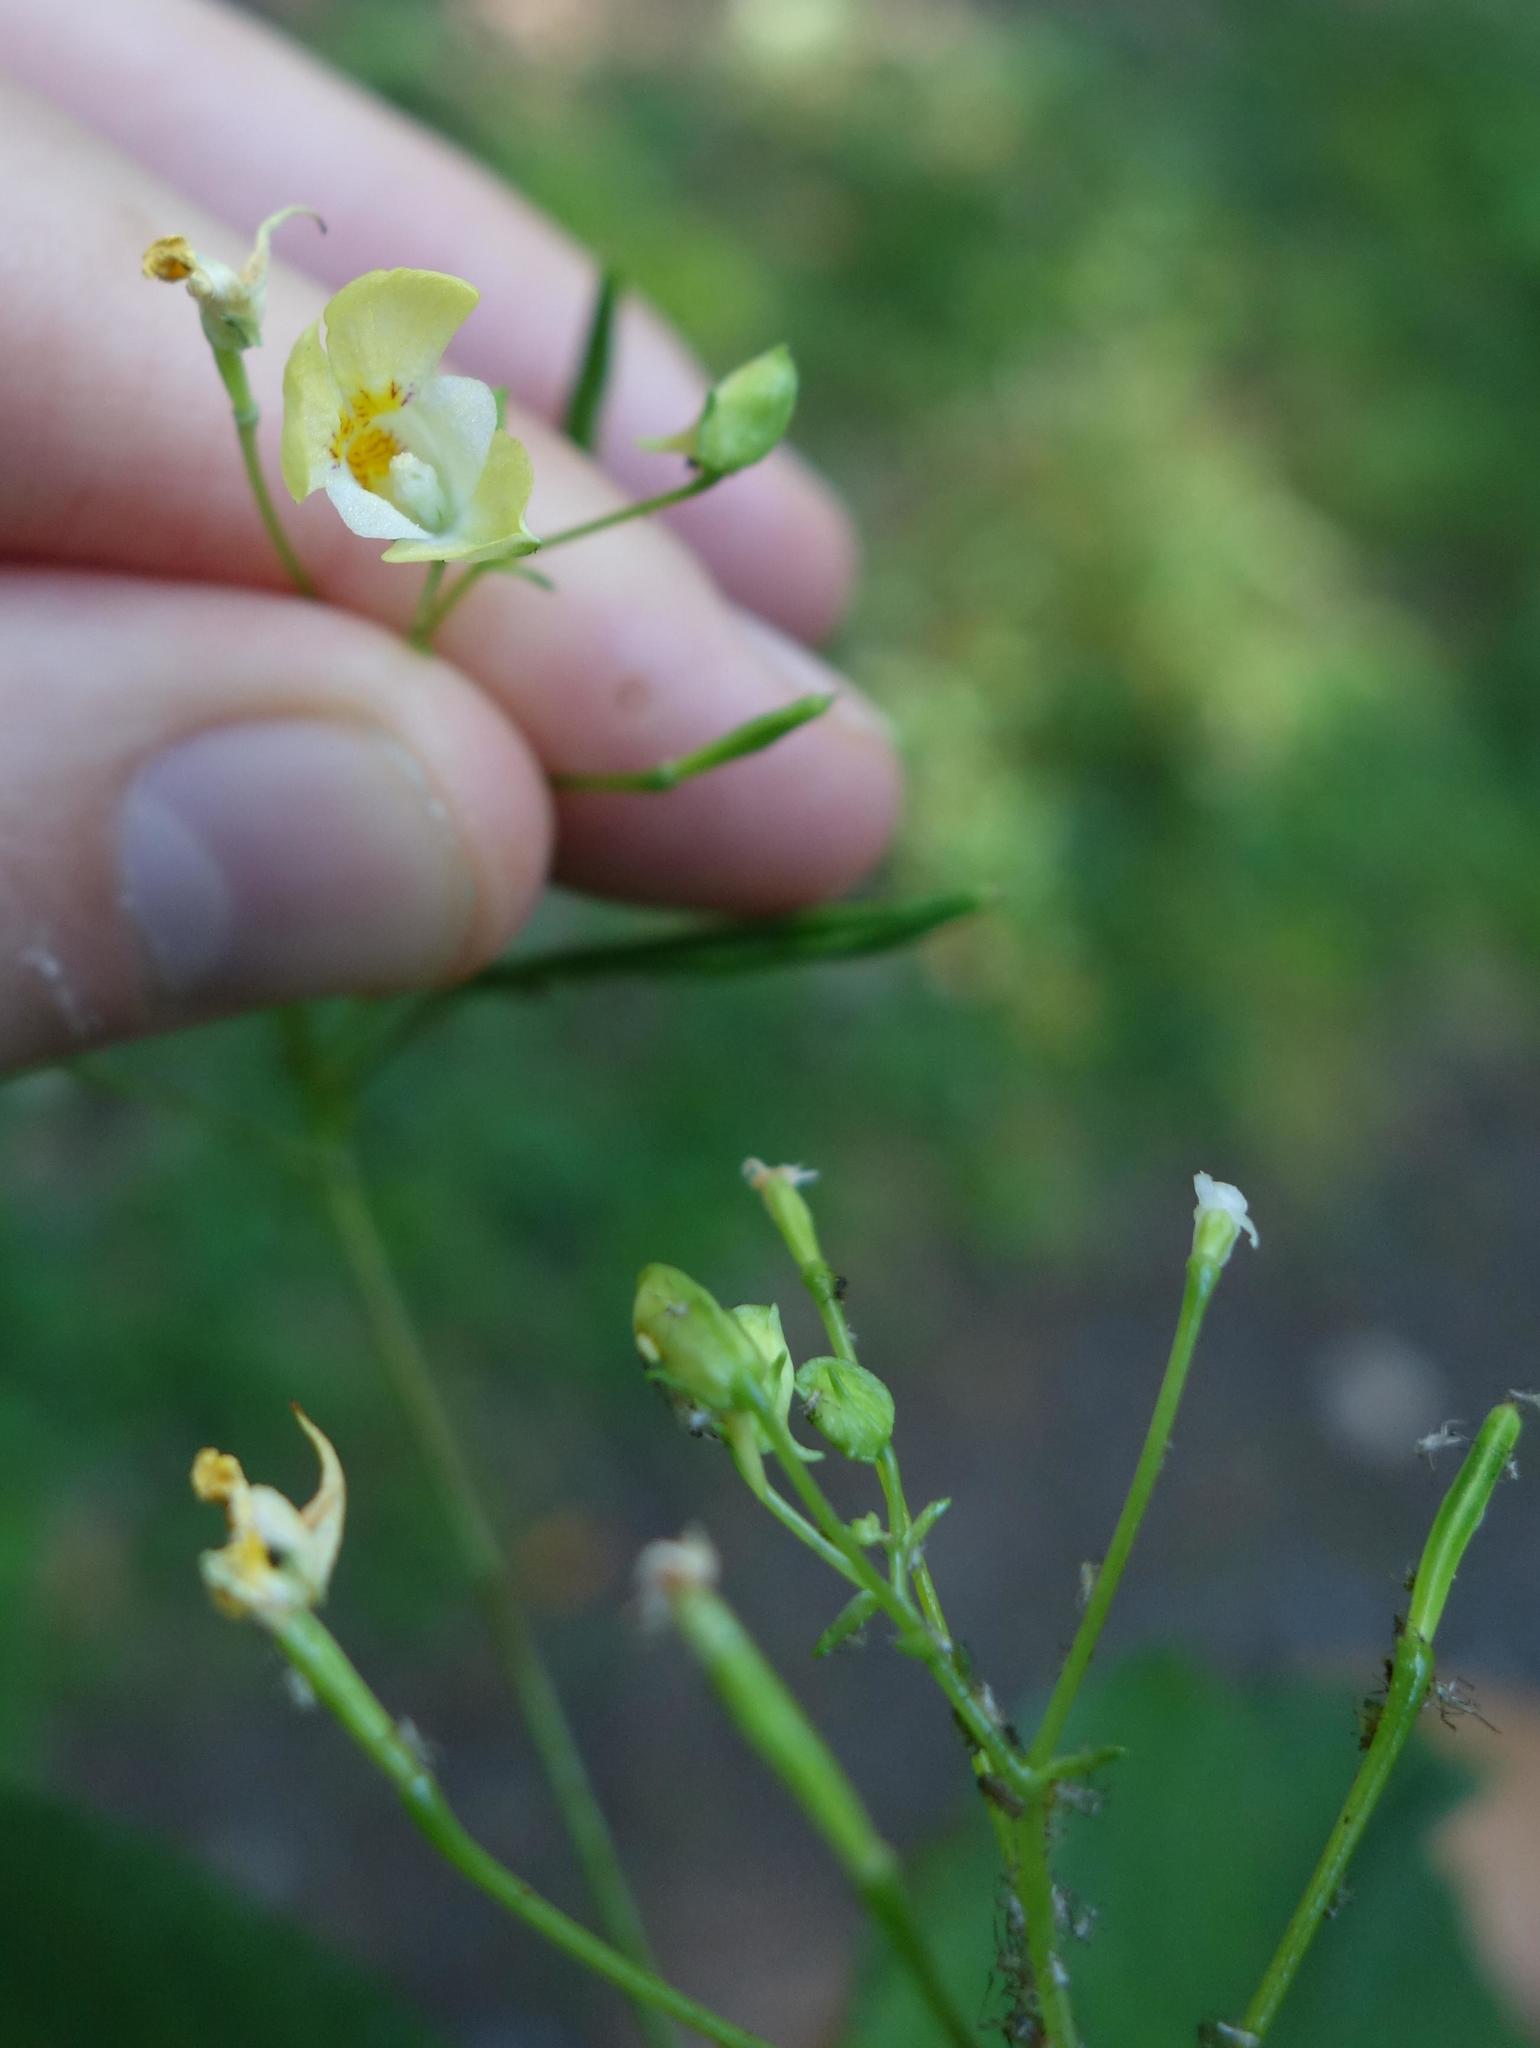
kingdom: Plantae
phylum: Tracheophyta
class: Magnoliopsida
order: Ericales
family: Balsaminaceae
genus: Impatiens
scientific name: Impatiens parviflora
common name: Small balsam
